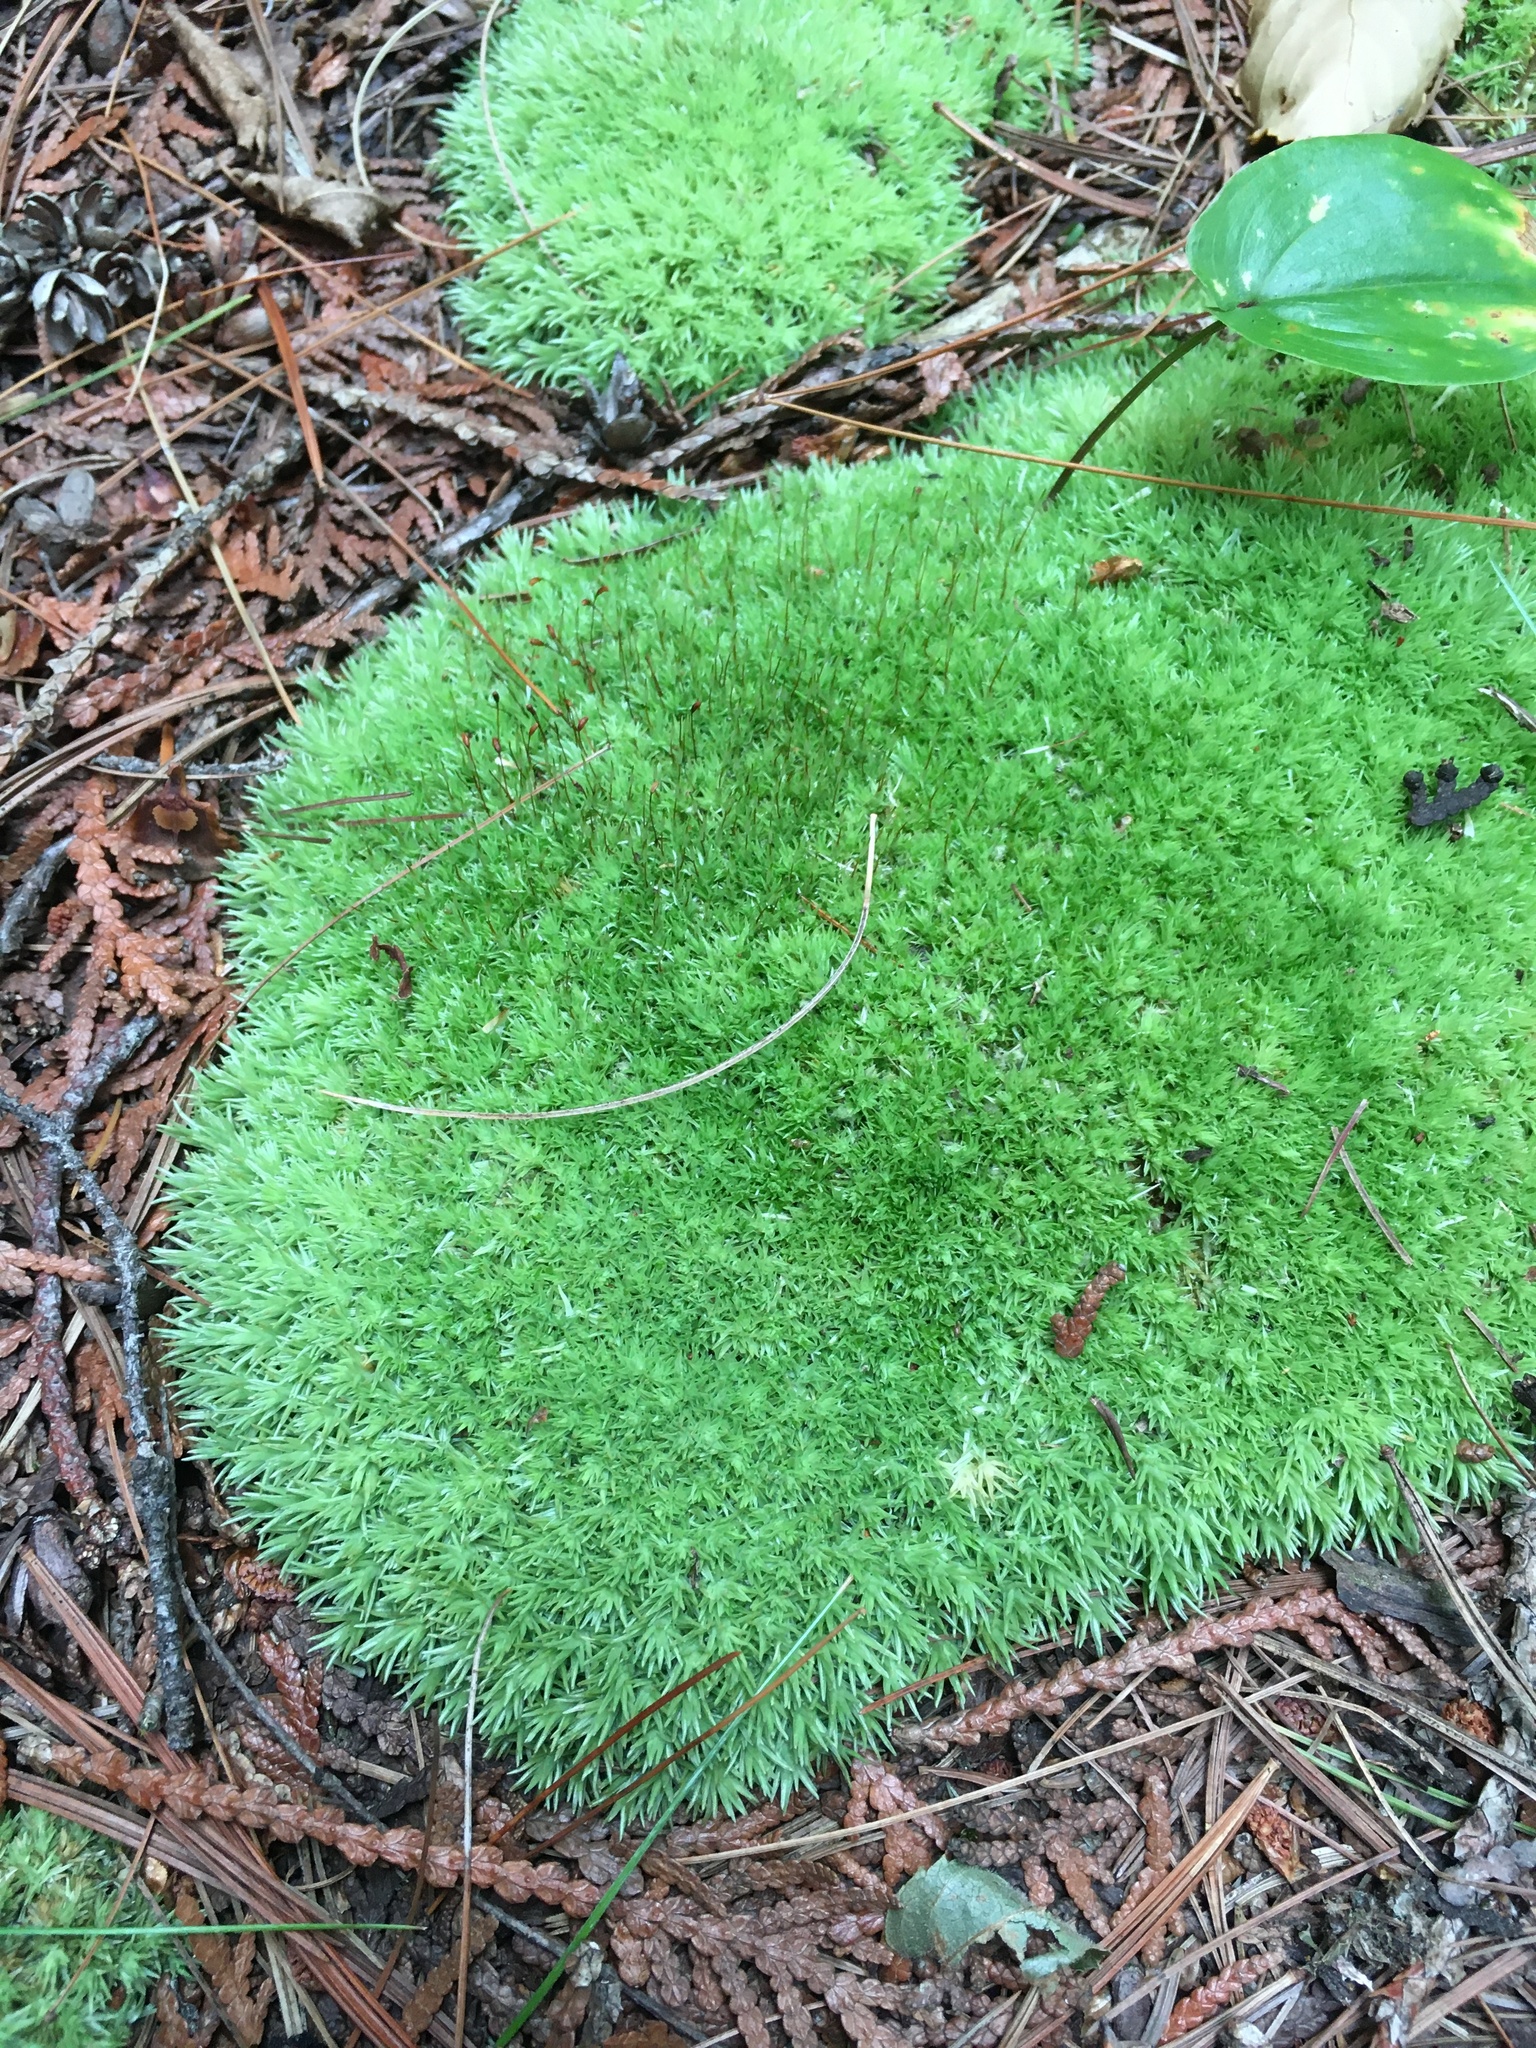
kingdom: Plantae
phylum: Bryophyta
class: Bryopsida
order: Dicranales
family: Leucobryaceae
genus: Leucobryum
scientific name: Leucobryum glaucum
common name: Large white-moss
